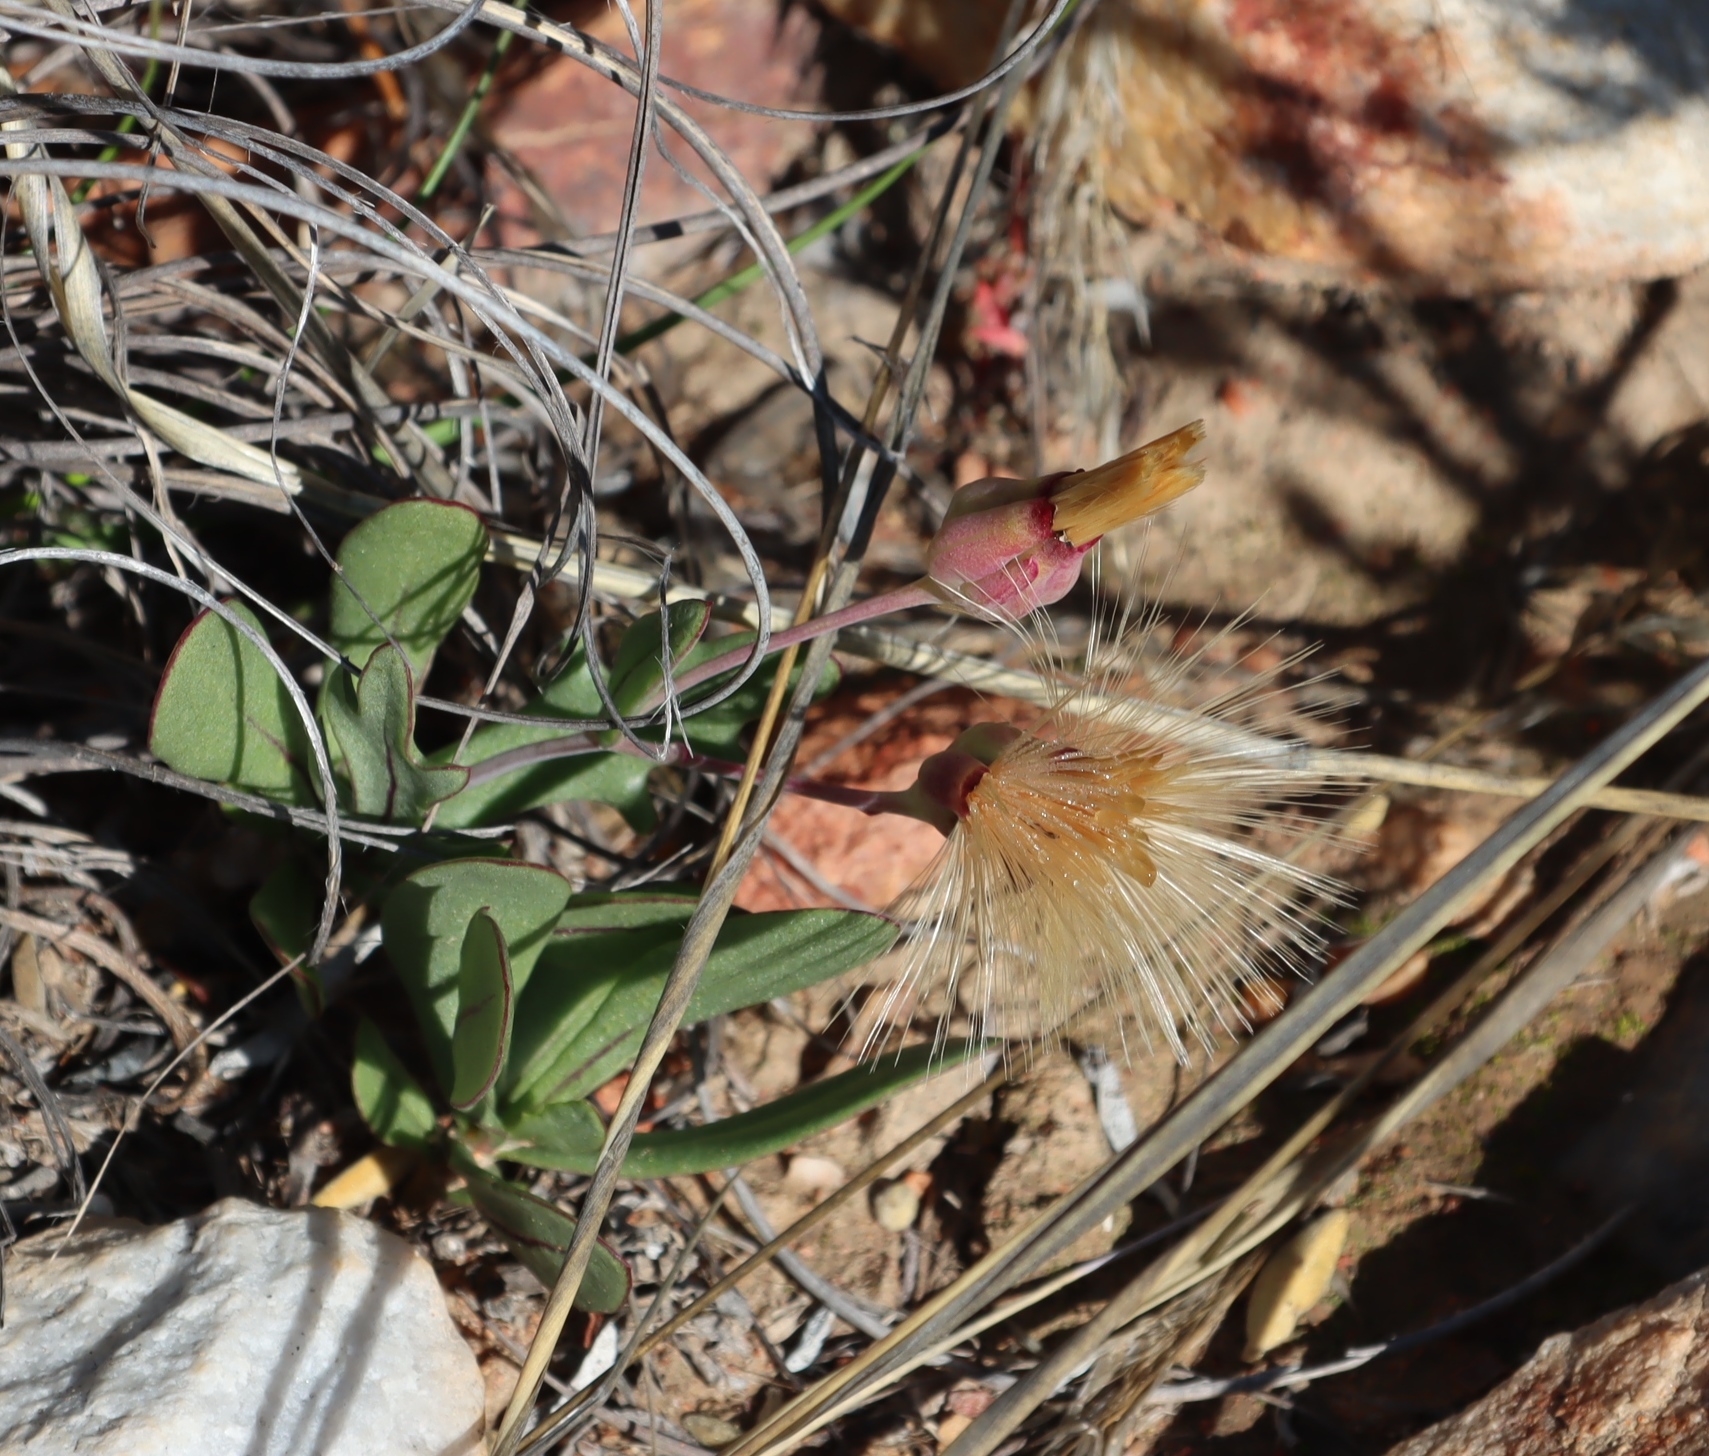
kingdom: Plantae
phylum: Tracheophyta
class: Magnoliopsida
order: Asterales
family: Asteraceae
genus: Othonna
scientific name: Othonna retrofracta
